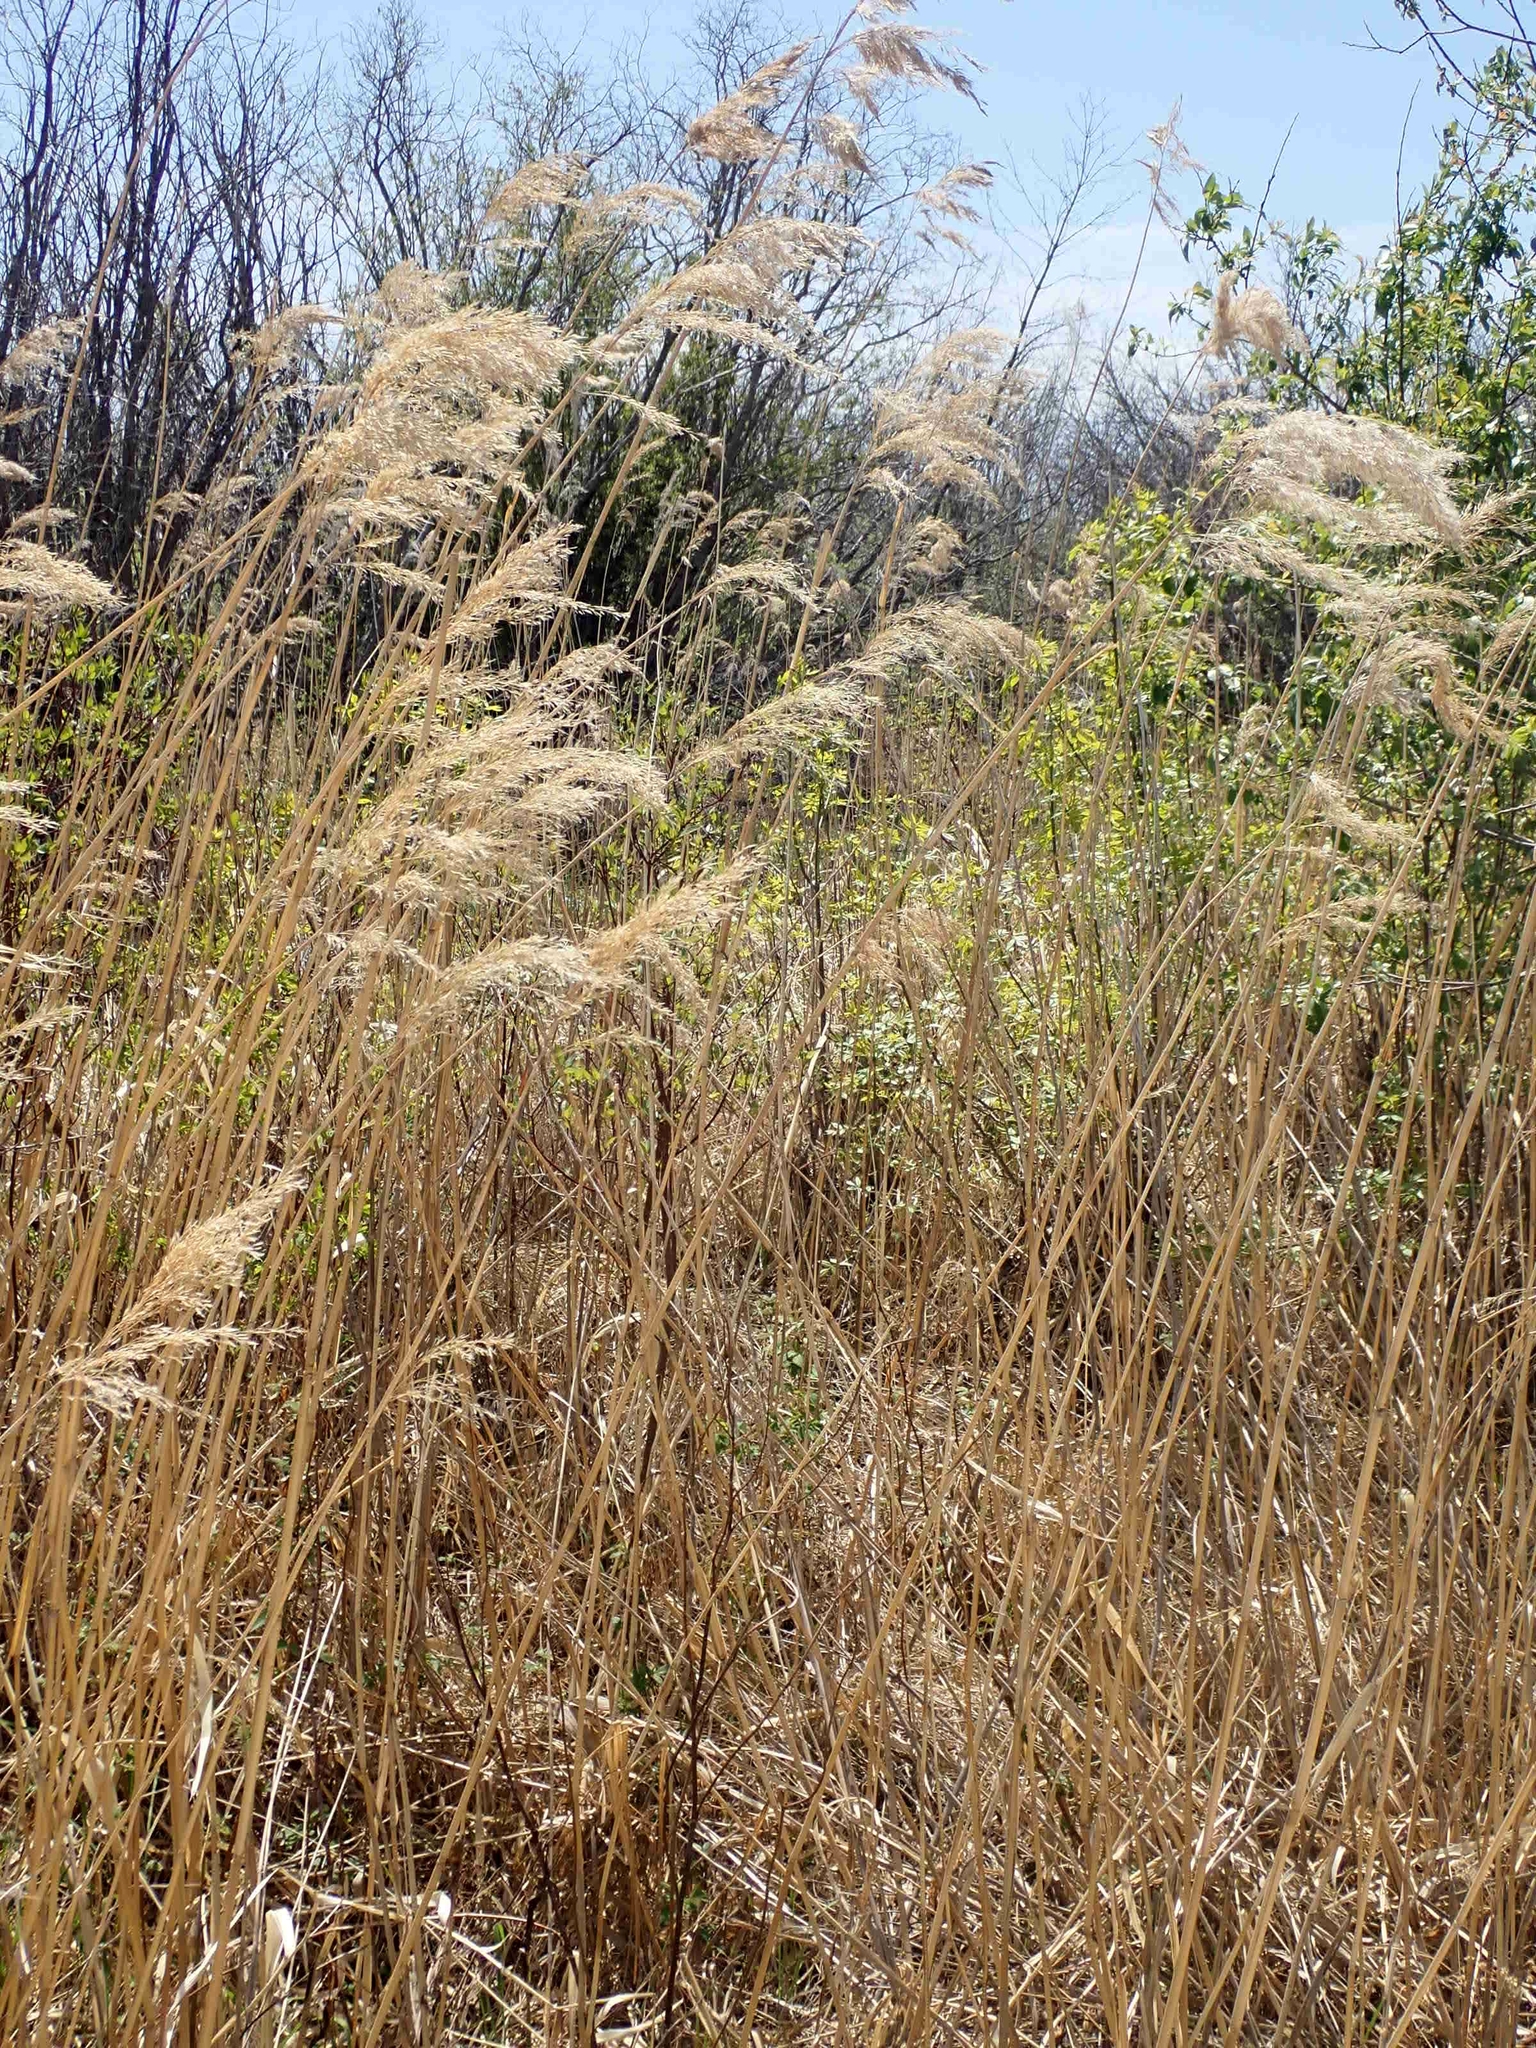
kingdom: Plantae
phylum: Tracheophyta
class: Liliopsida
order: Poales
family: Poaceae
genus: Phragmites
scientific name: Phragmites australis
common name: Common reed
